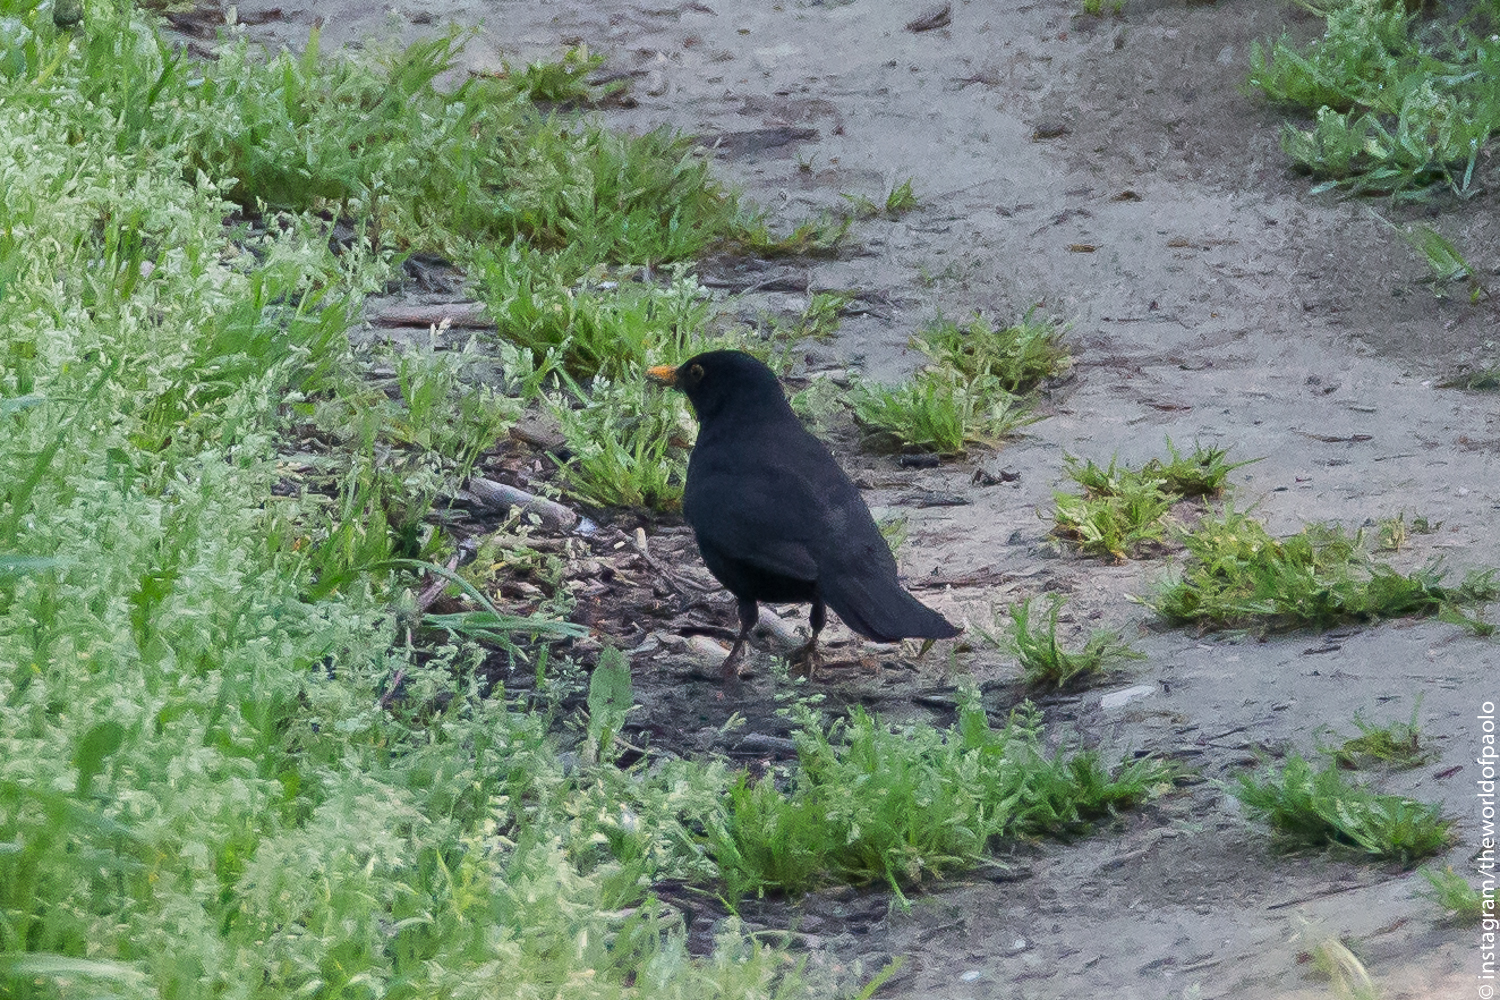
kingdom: Animalia
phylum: Chordata
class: Aves
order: Passeriformes
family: Turdidae
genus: Turdus
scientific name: Turdus merula
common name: Common blackbird
